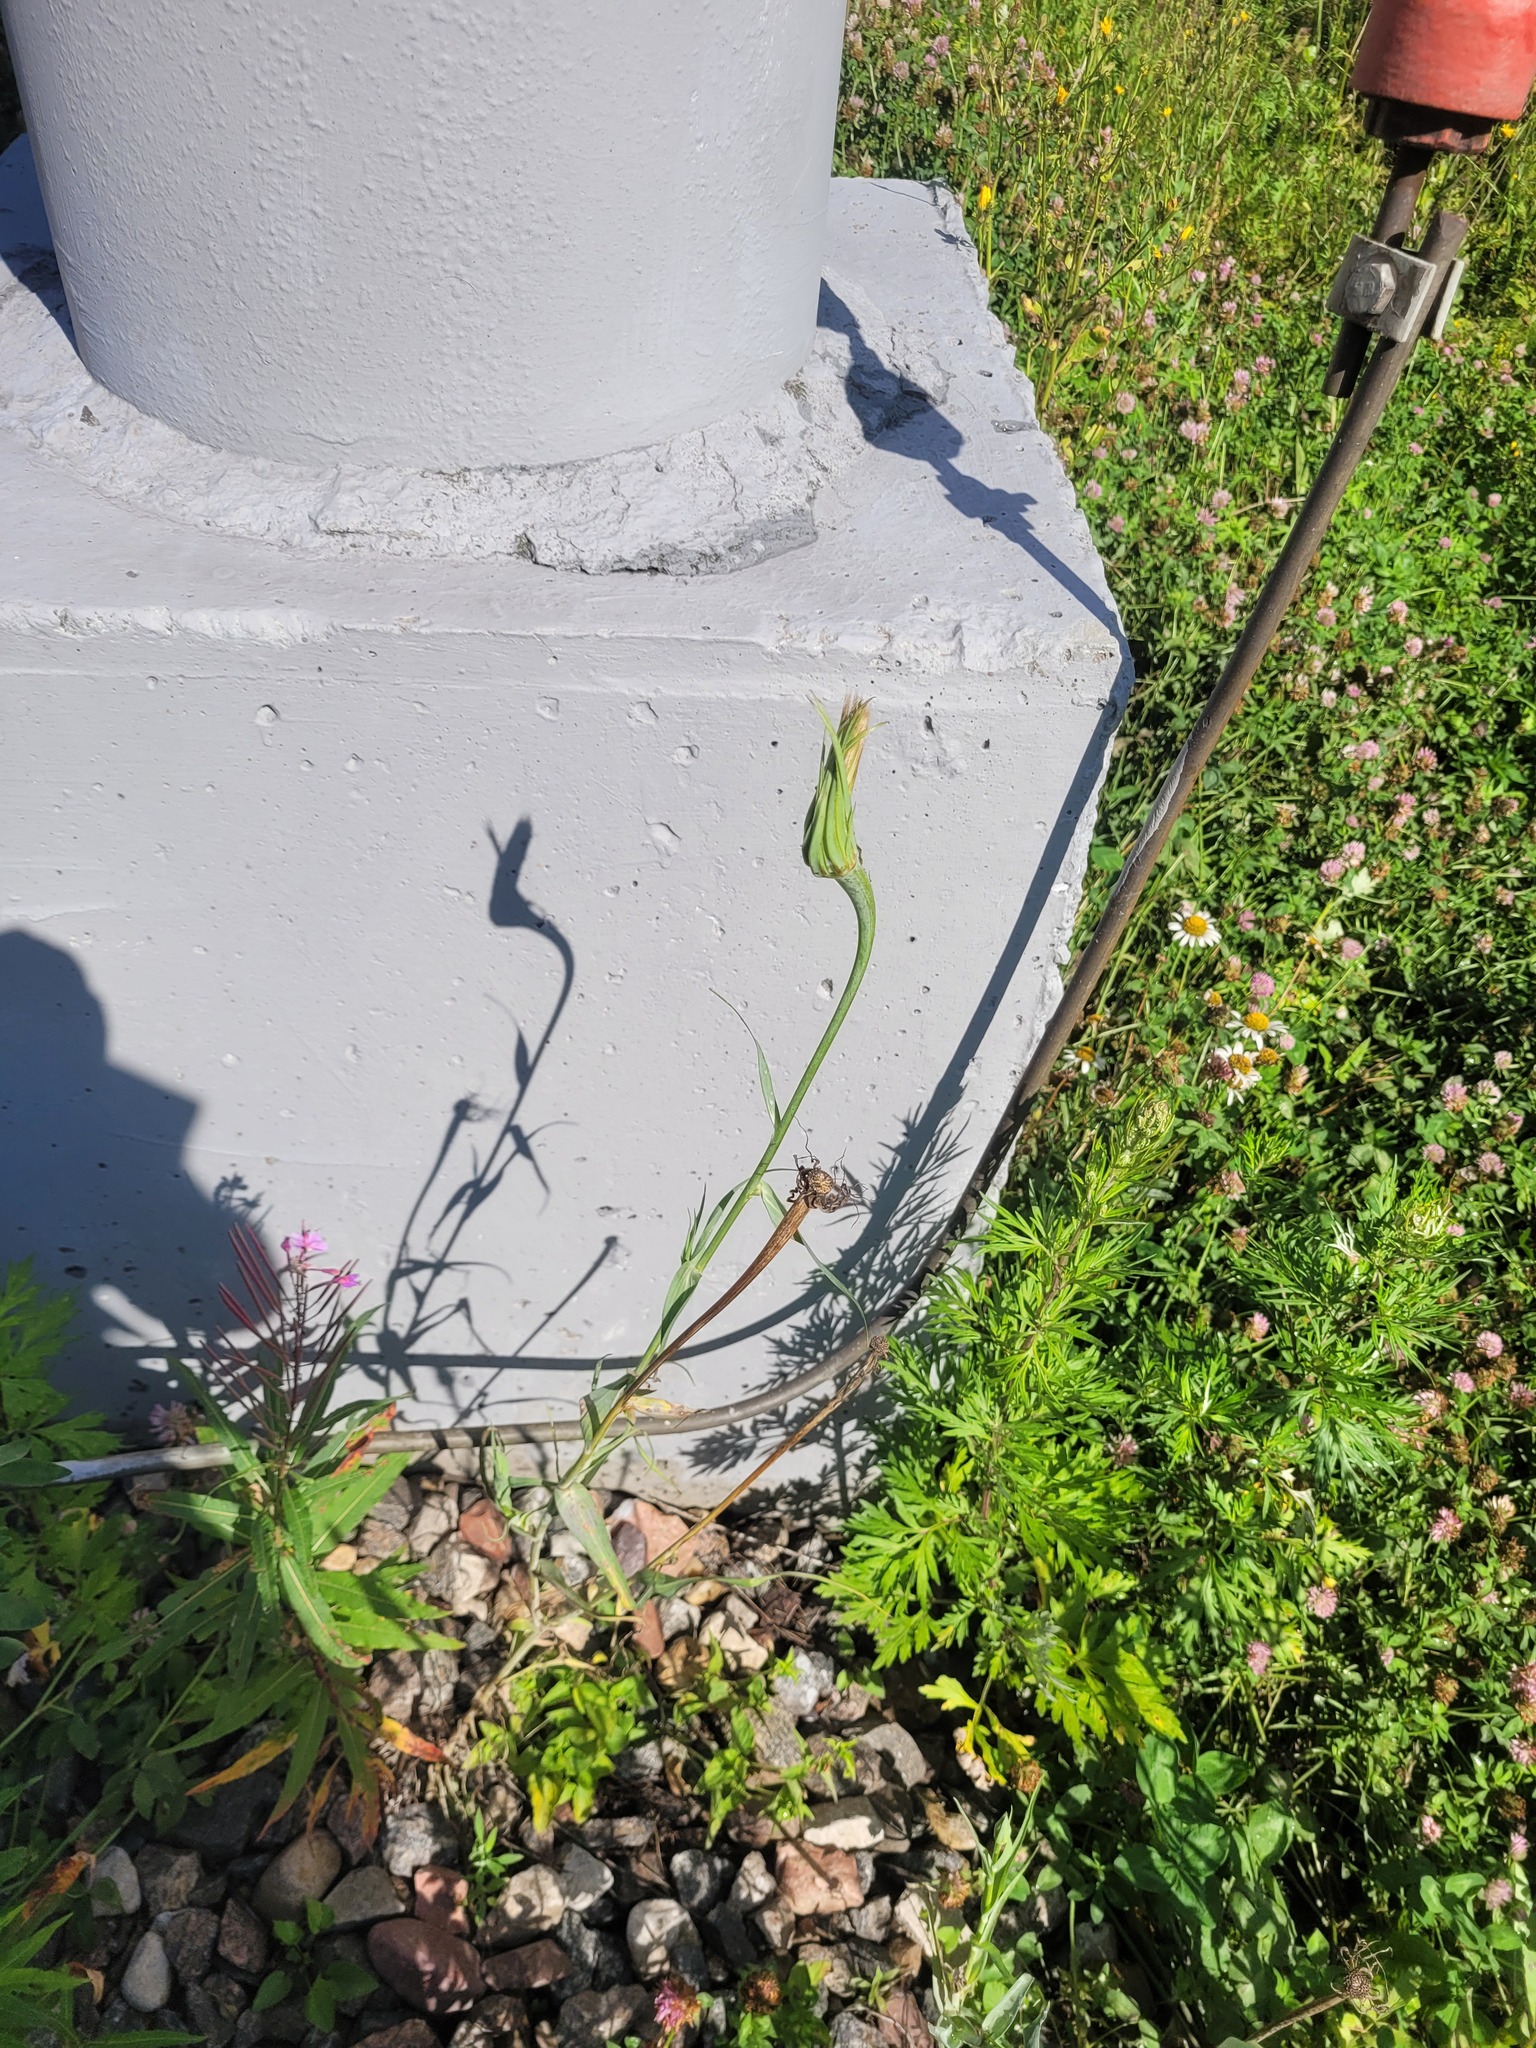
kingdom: Plantae
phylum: Tracheophyta
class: Magnoliopsida
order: Asterales
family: Asteraceae
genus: Tragopogon
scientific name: Tragopogon dubius
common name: Yellow salsify
